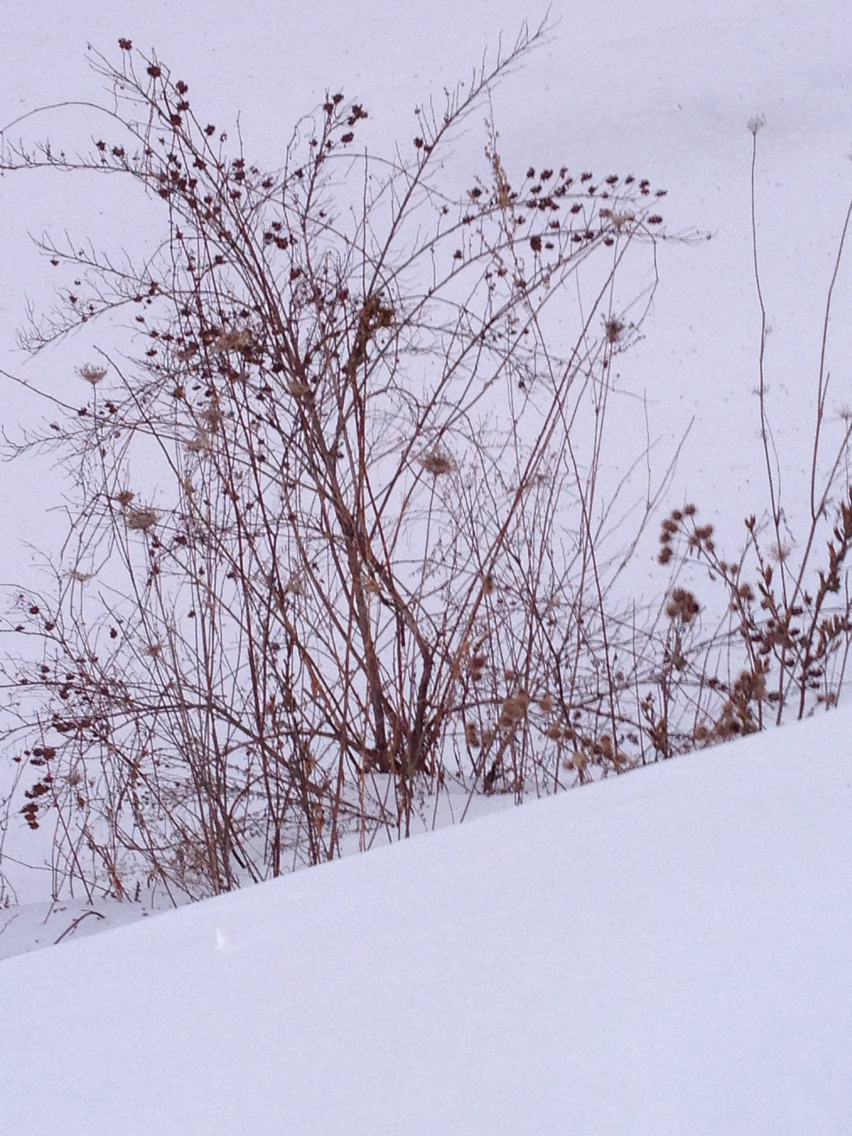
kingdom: Plantae
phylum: Tracheophyta
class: Magnoliopsida
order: Apiales
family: Apiaceae
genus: Daucus
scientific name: Daucus carota
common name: Wild carrot
